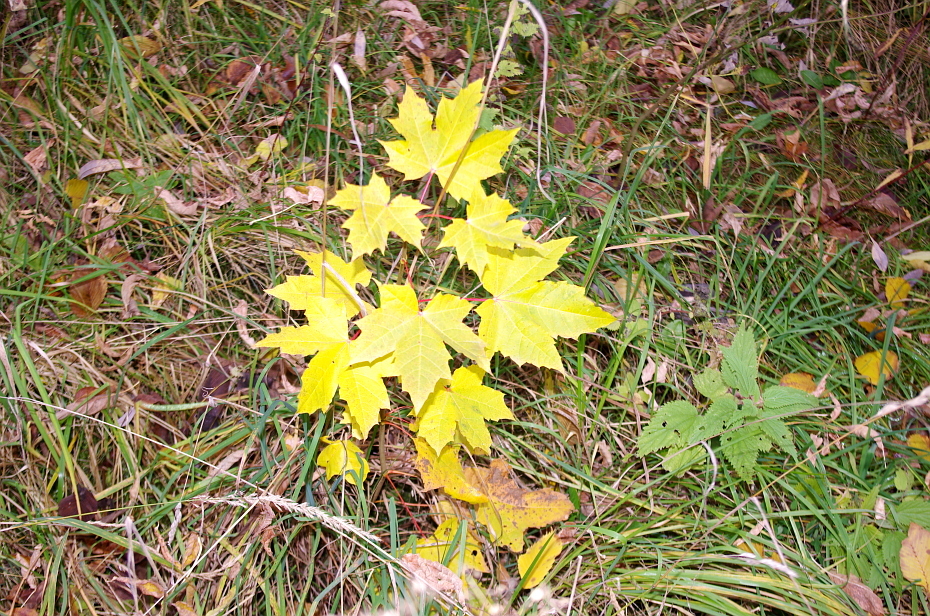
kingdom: Plantae
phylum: Tracheophyta
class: Magnoliopsida
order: Sapindales
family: Sapindaceae
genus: Acer
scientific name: Acer platanoides
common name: Norway maple
